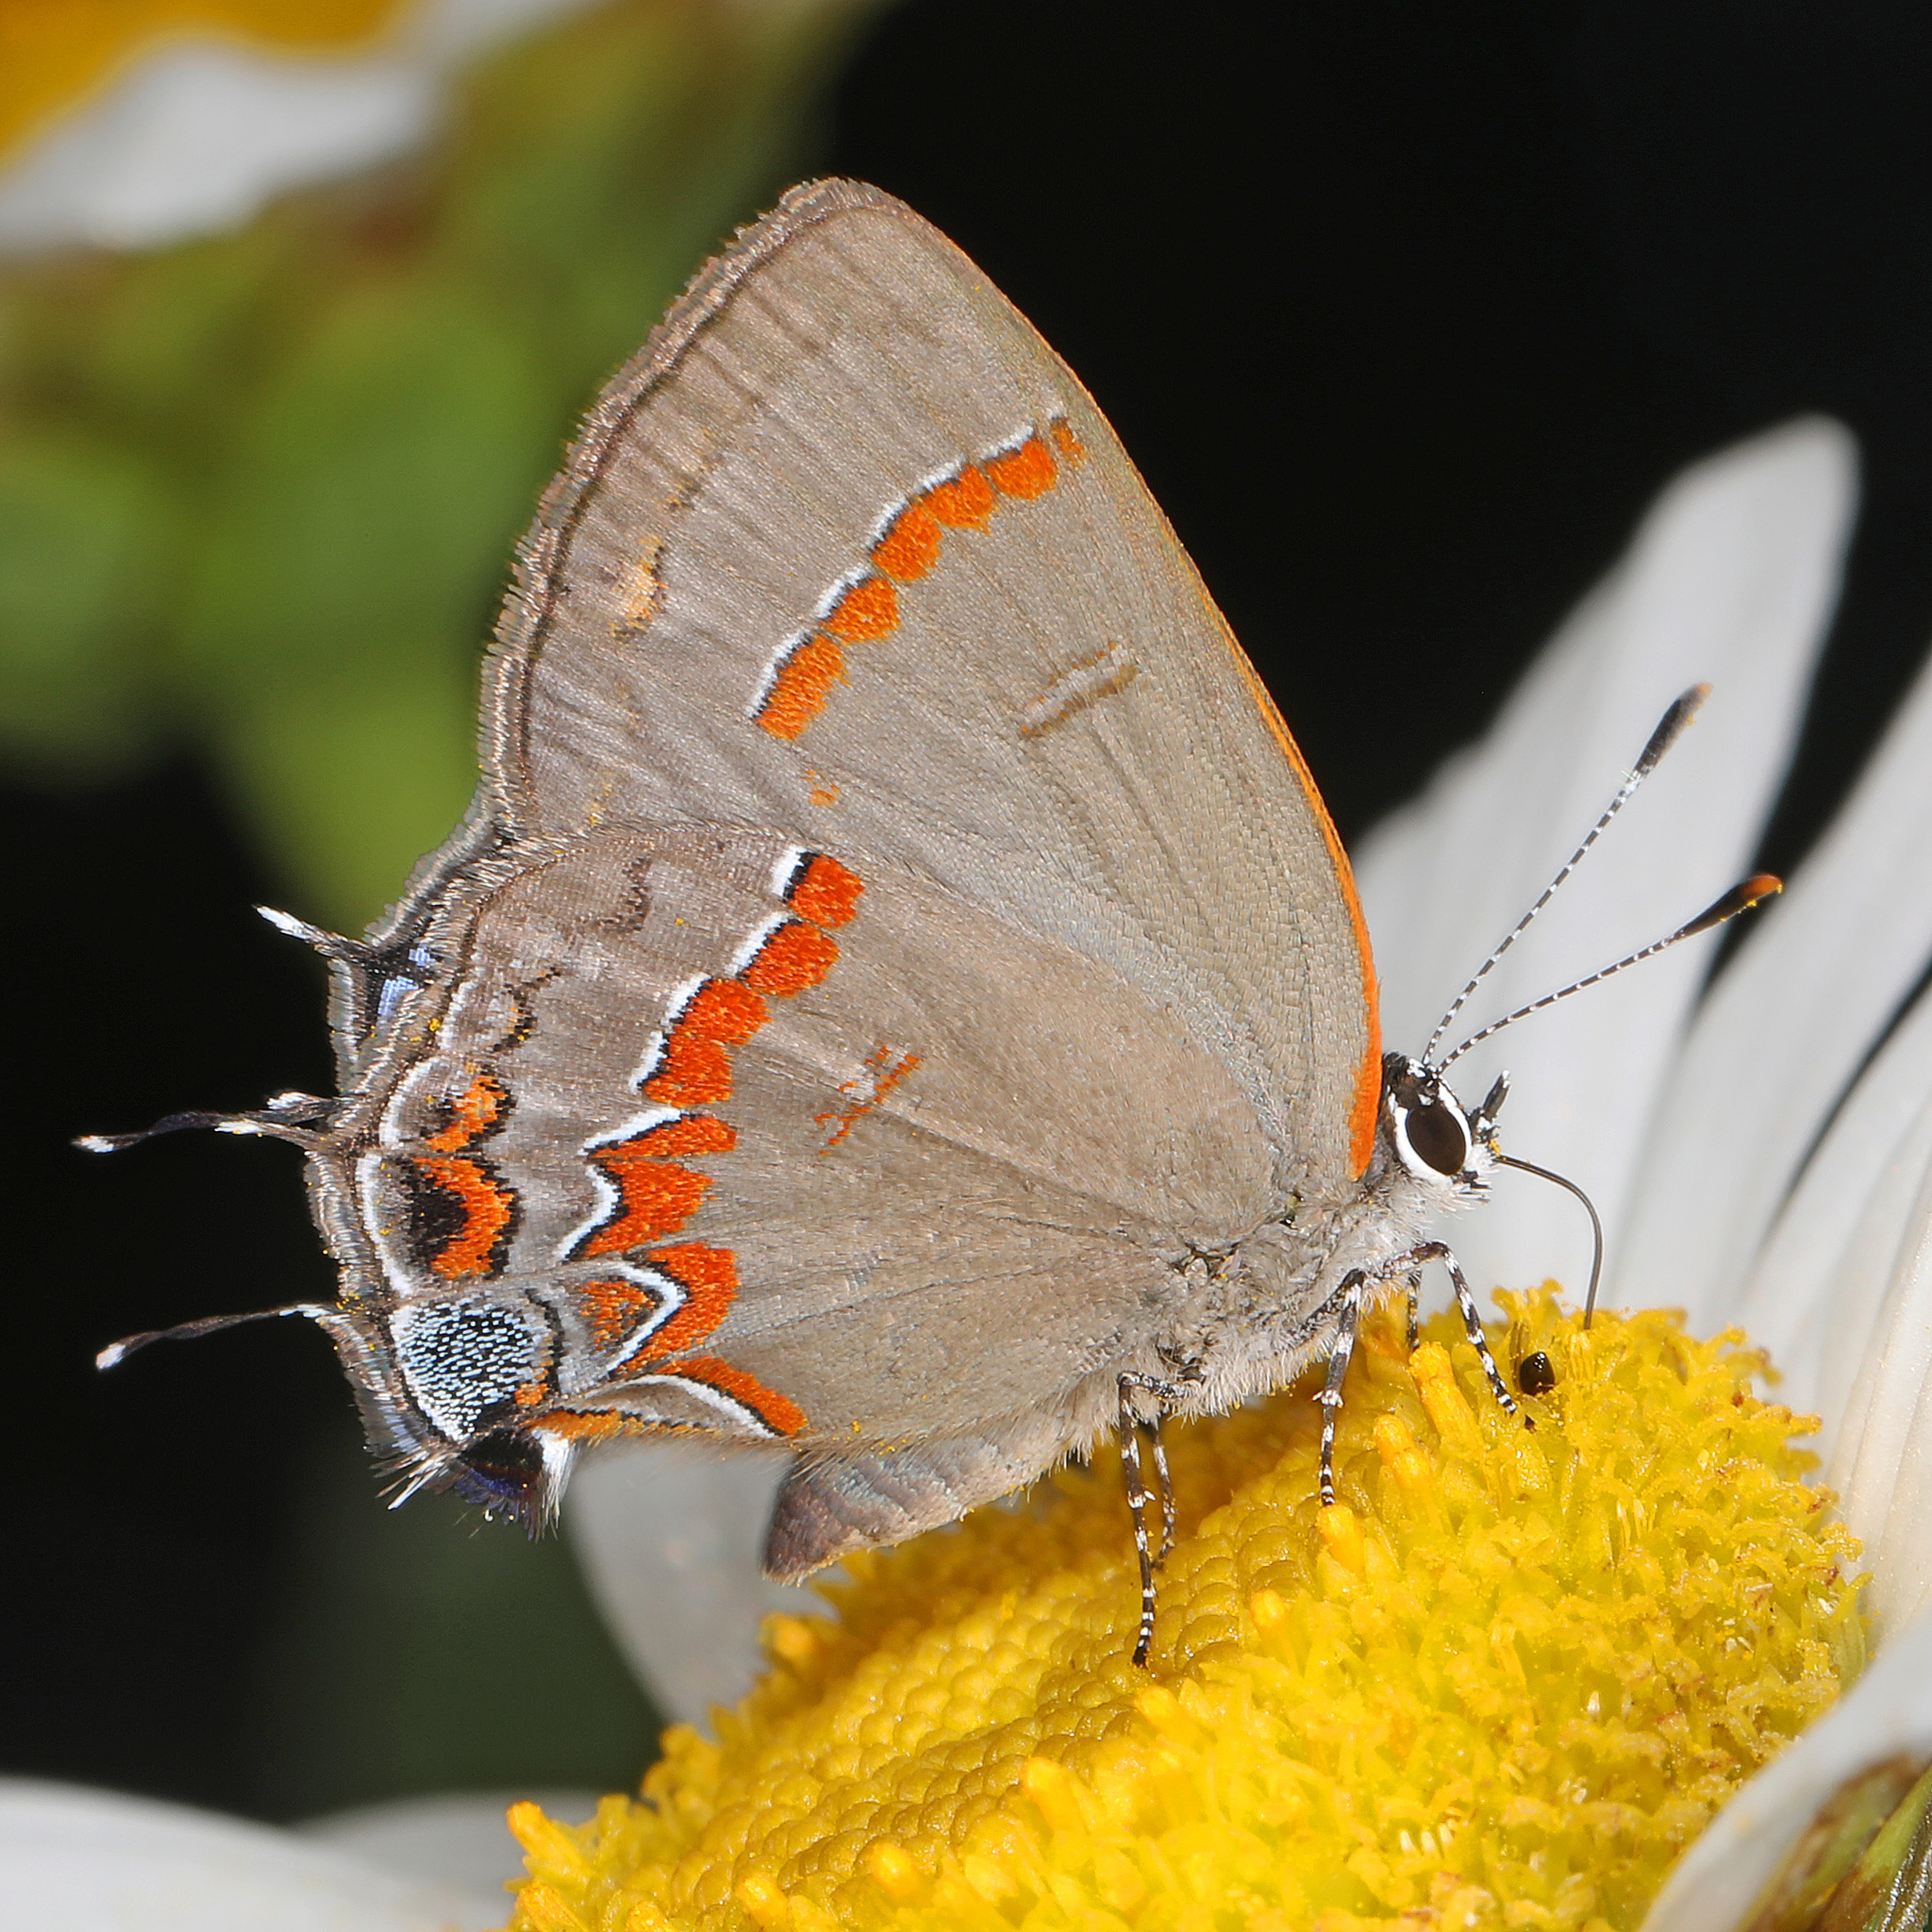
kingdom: Animalia
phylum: Arthropoda
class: Insecta
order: Lepidoptera
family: Lycaenidae
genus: Calycopis
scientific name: Calycopis cecrops
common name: Red-banded hairstreak
